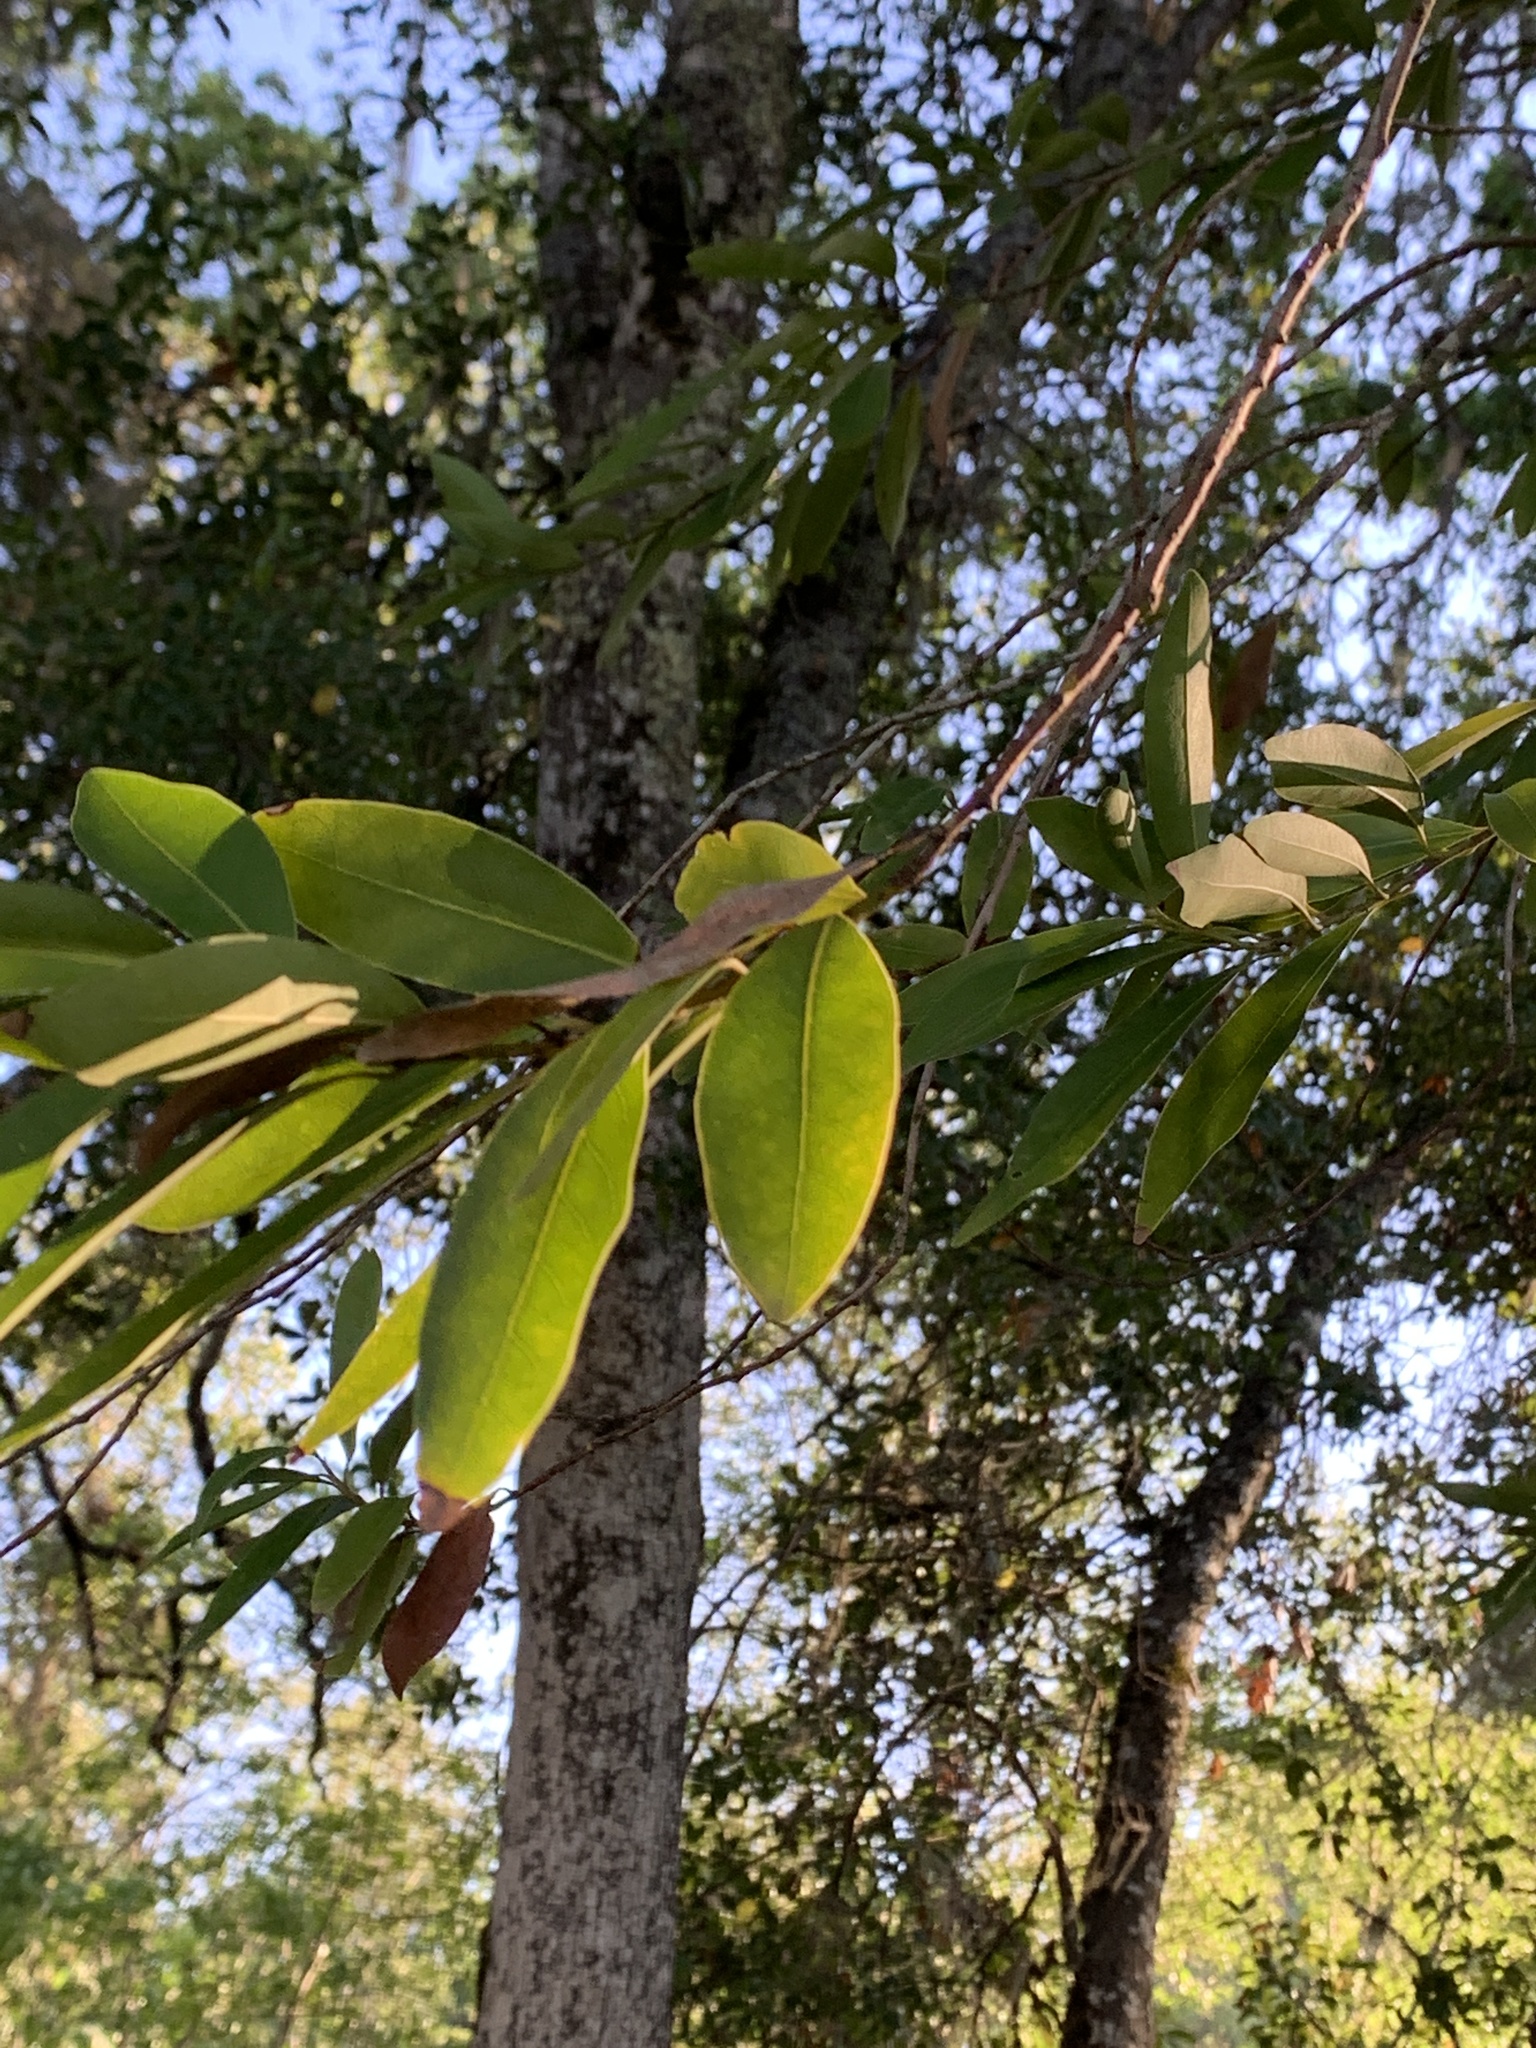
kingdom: Plantae
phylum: Tracheophyta
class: Magnoliopsida
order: Laurales
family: Lauraceae
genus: Umbellularia
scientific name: Umbellularia californica
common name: California bay
